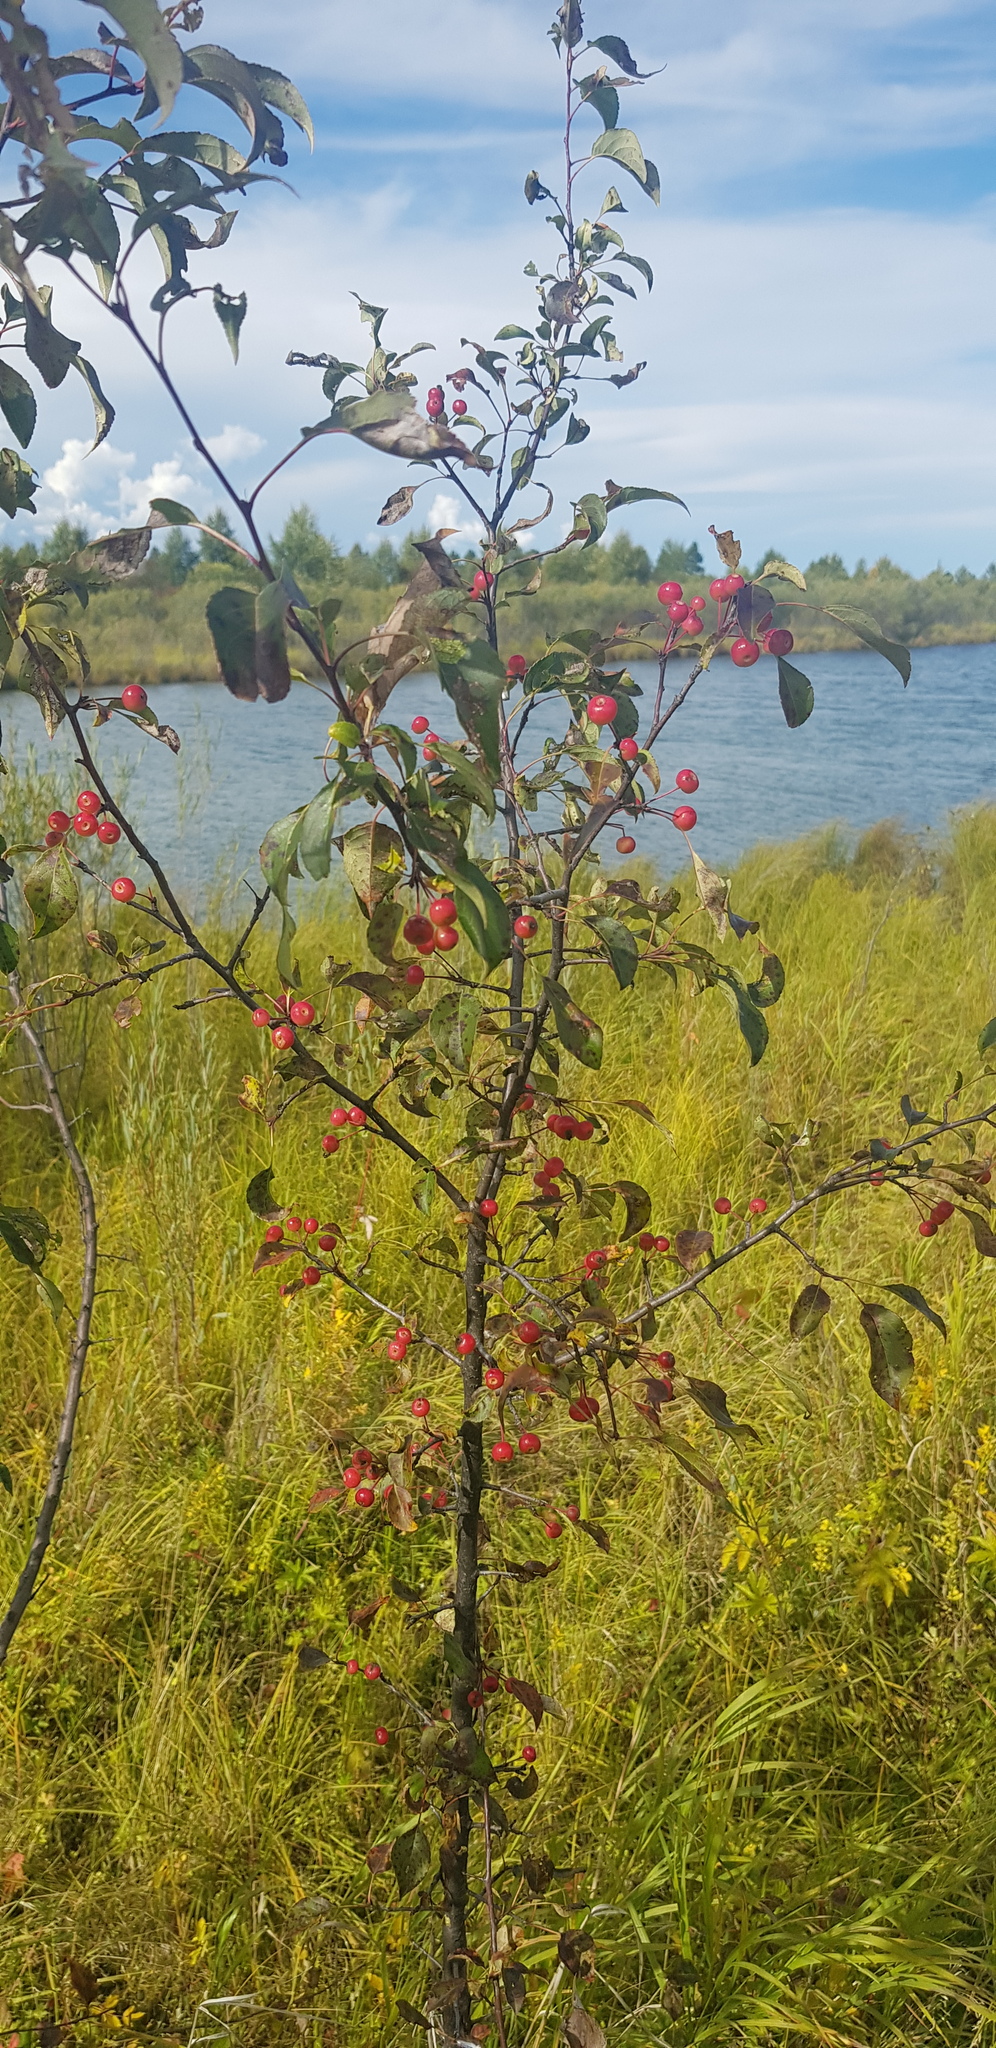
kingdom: Plantae
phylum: Tracheophyta
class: Magnoliopsida
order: Rosales
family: Rosaceae
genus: Malus
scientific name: Malus baccata
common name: Siberian crab
